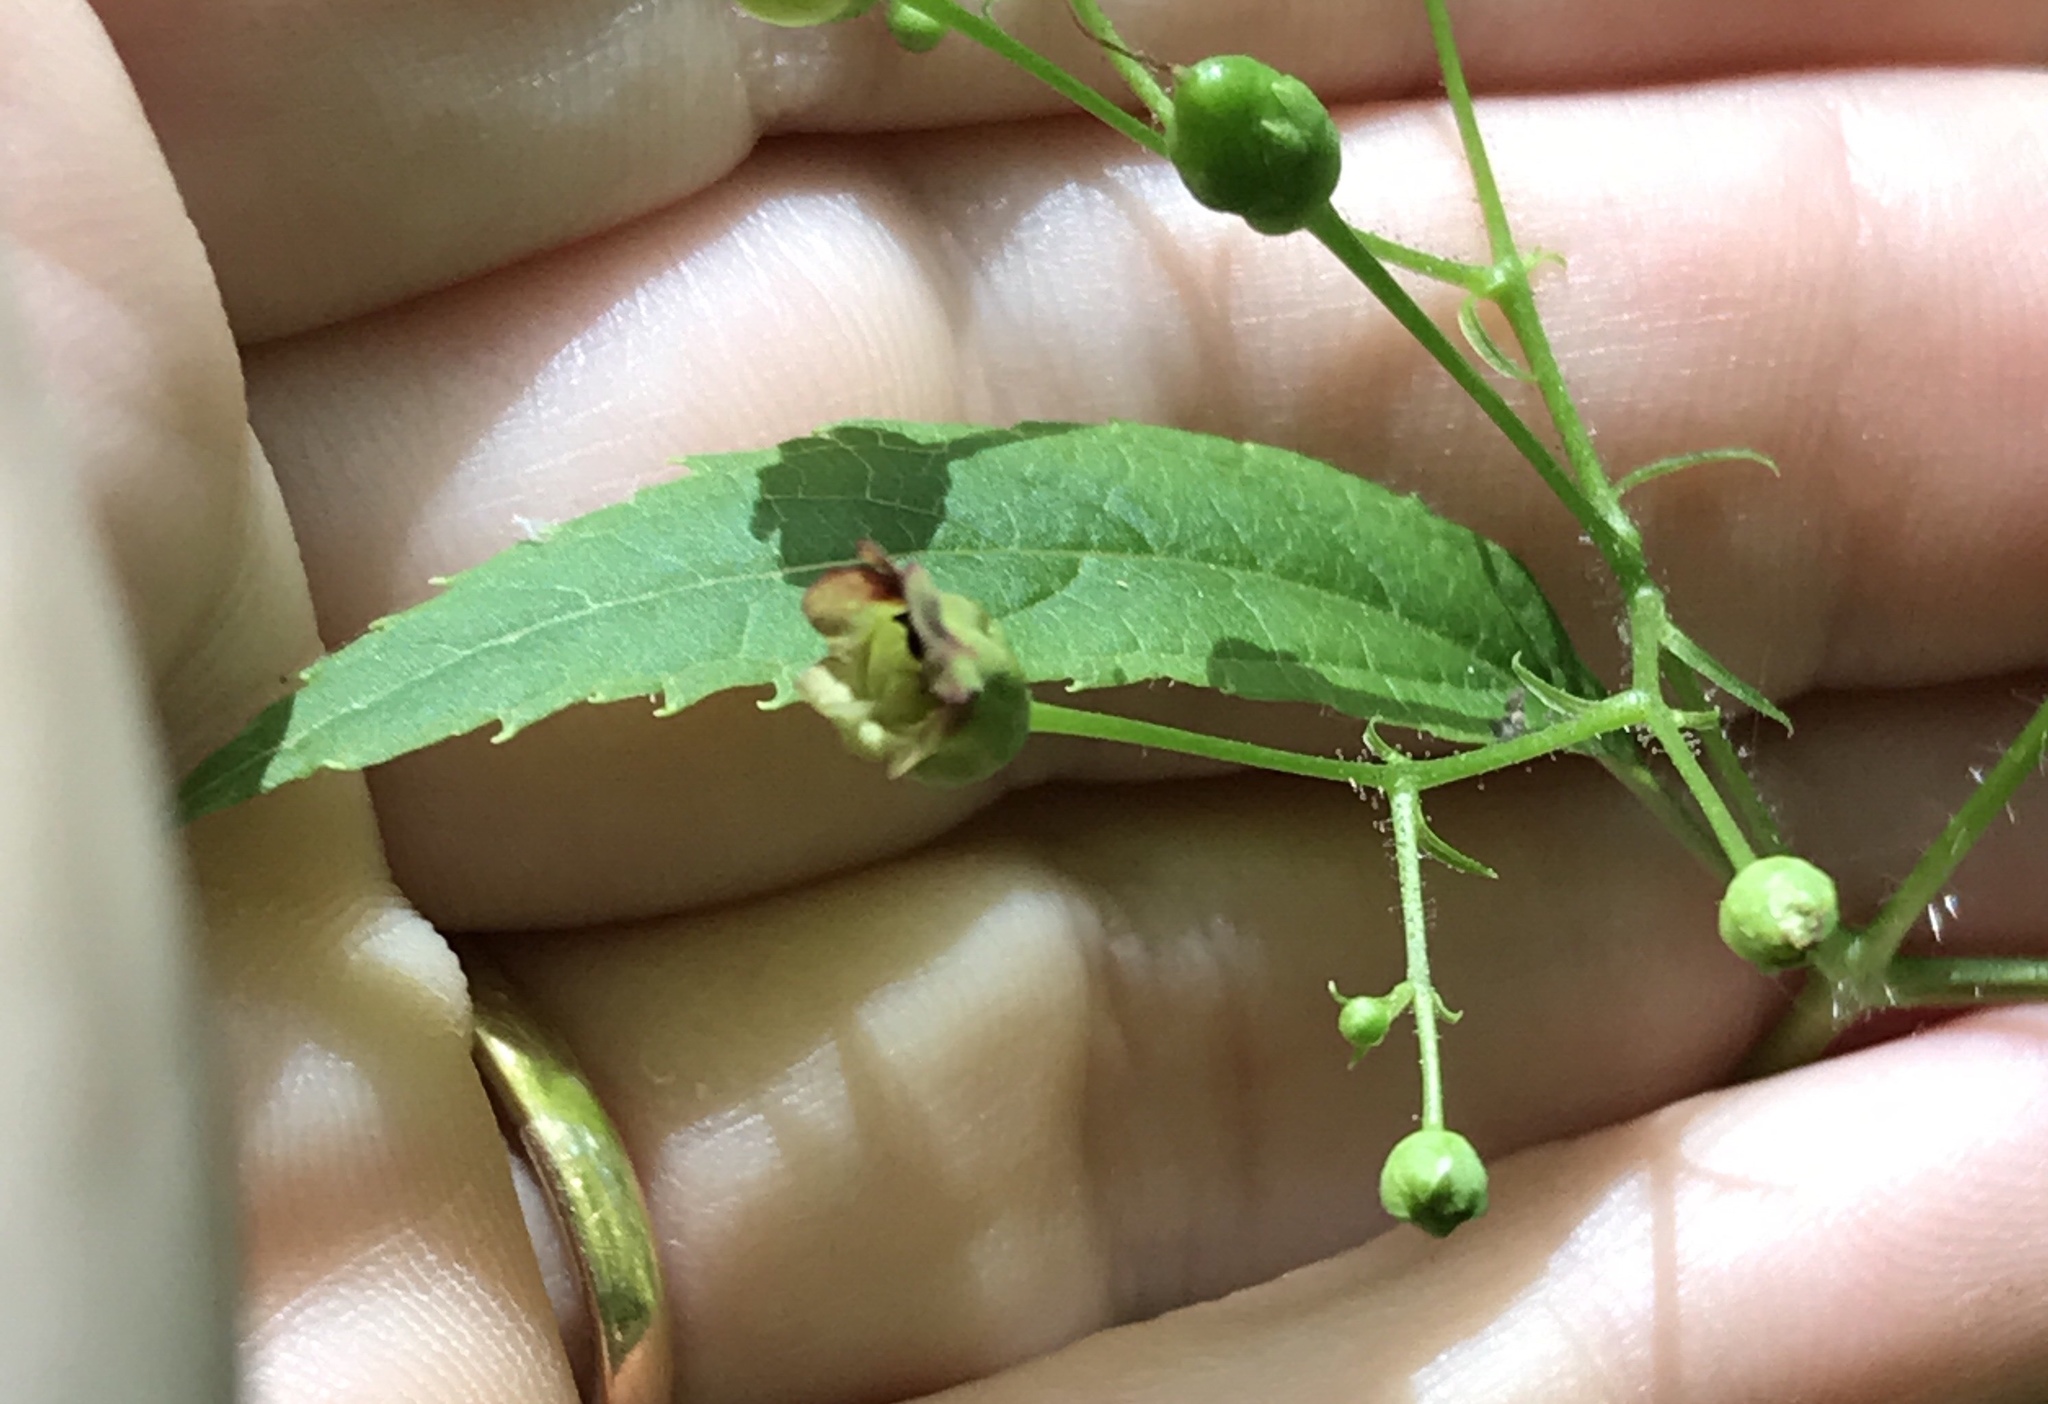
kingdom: Plantae
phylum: Tracheophyta
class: Magnoliopsida
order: Lamiales
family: Scrophulariaceae
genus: Scrophularia
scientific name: Scrophularia marilandica
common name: Eastern figwort
